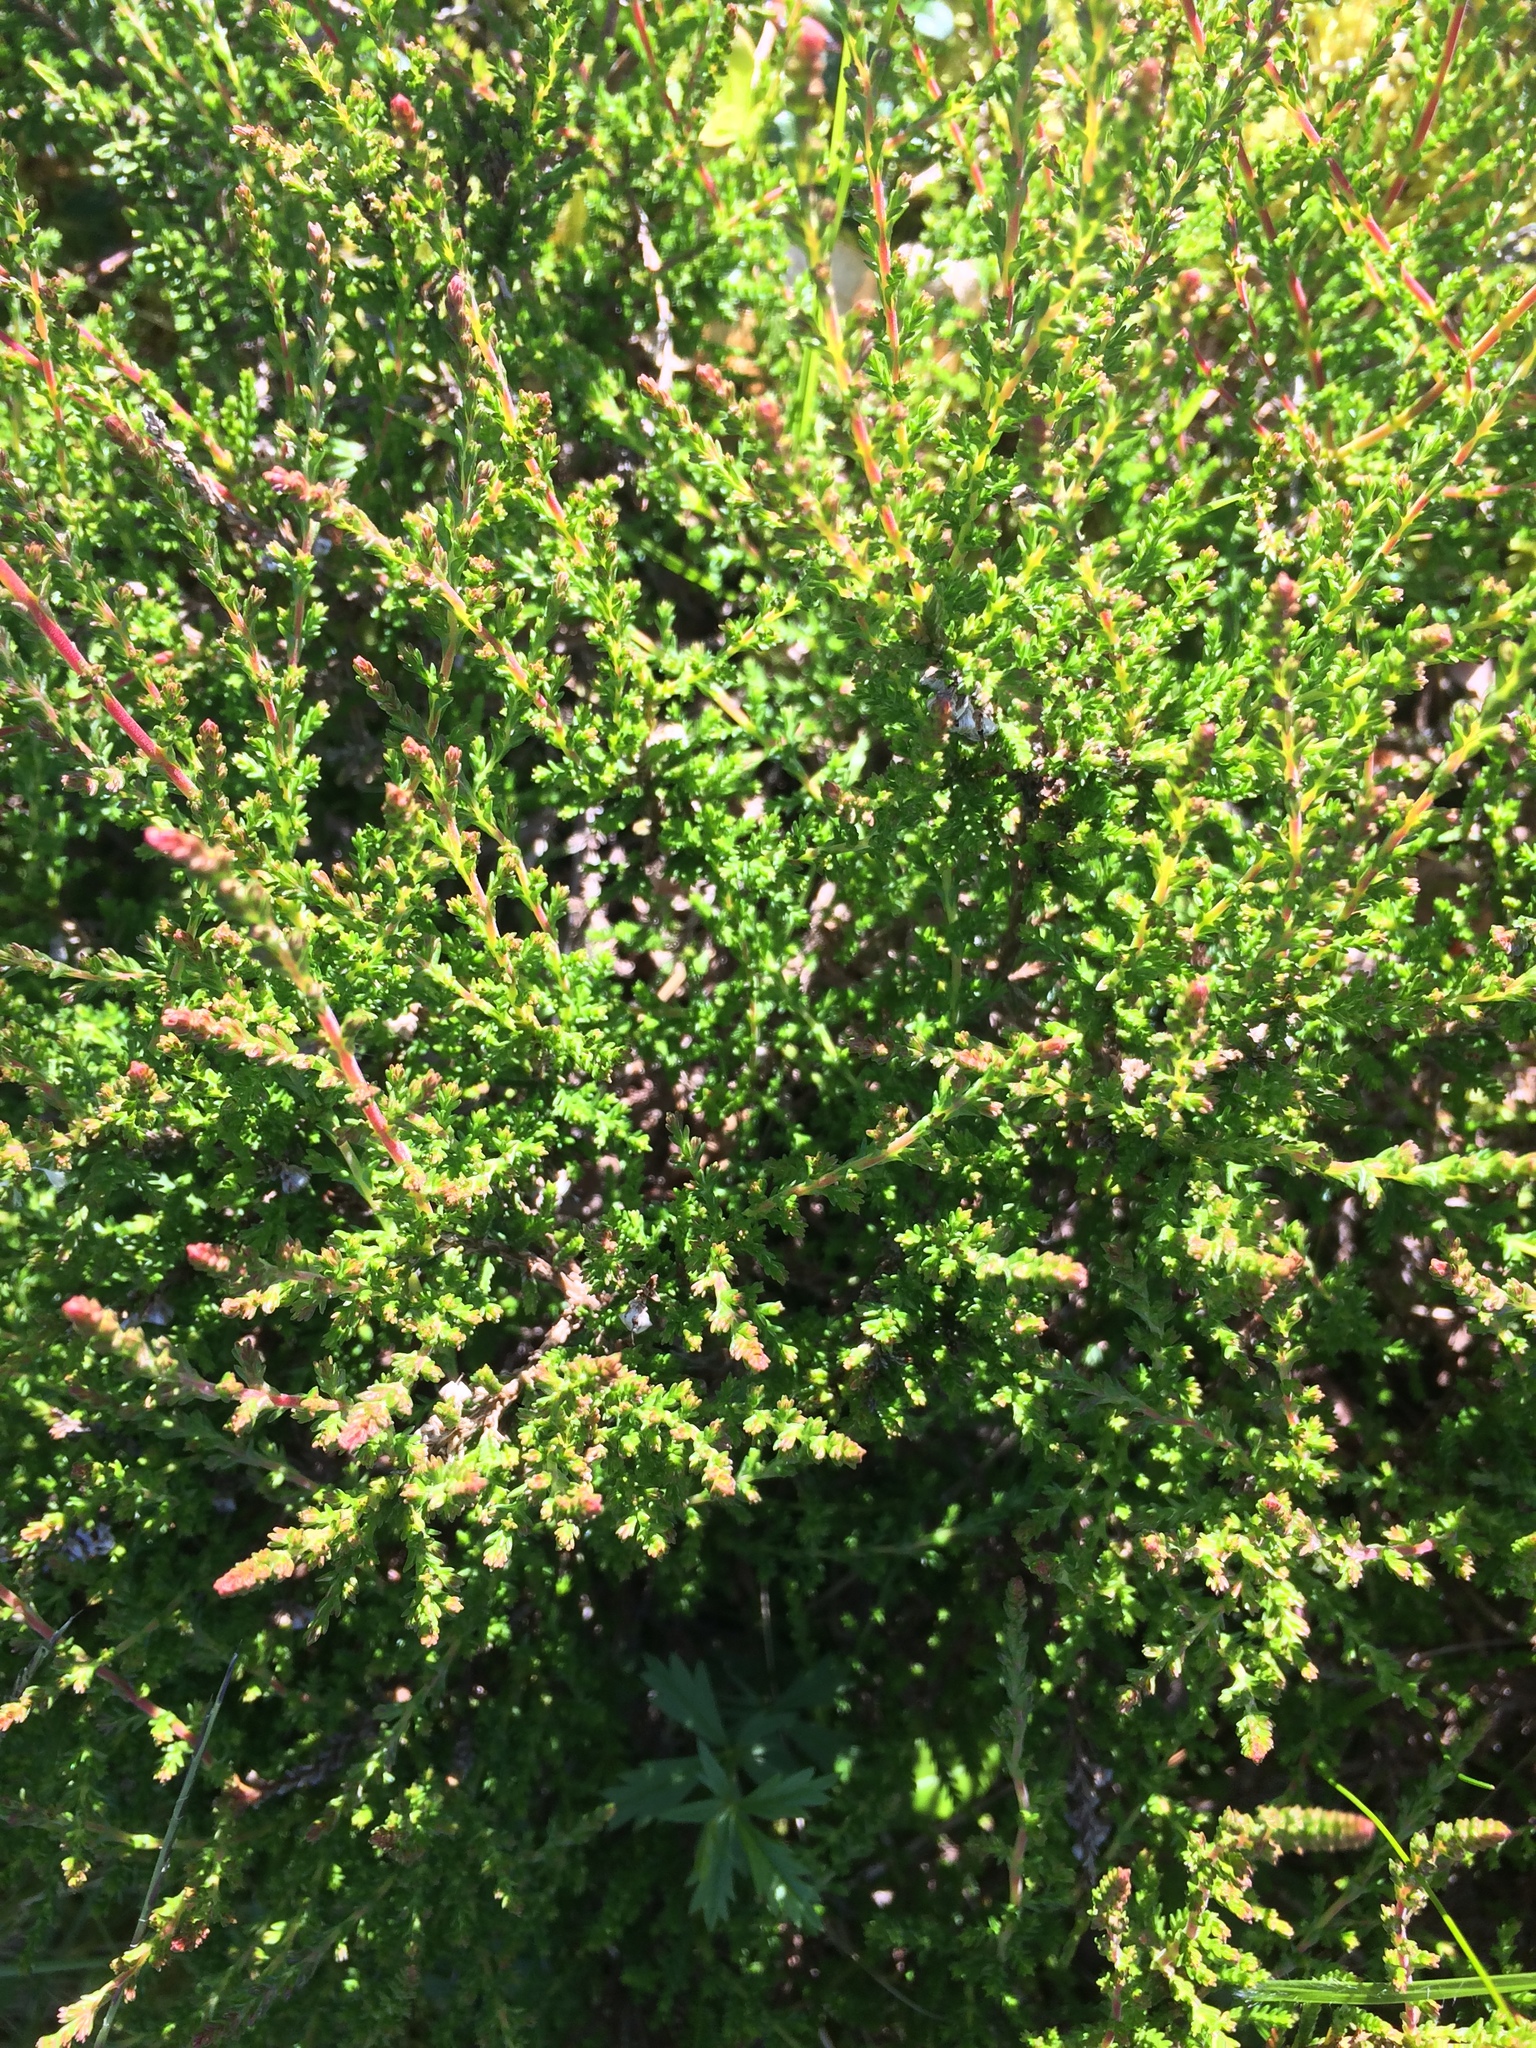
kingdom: Plantae
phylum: Tracheophyta
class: Magnoliopsida
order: Ericales
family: Ericaceae
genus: Calluna
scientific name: Calluna vulgaris
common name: Heather
